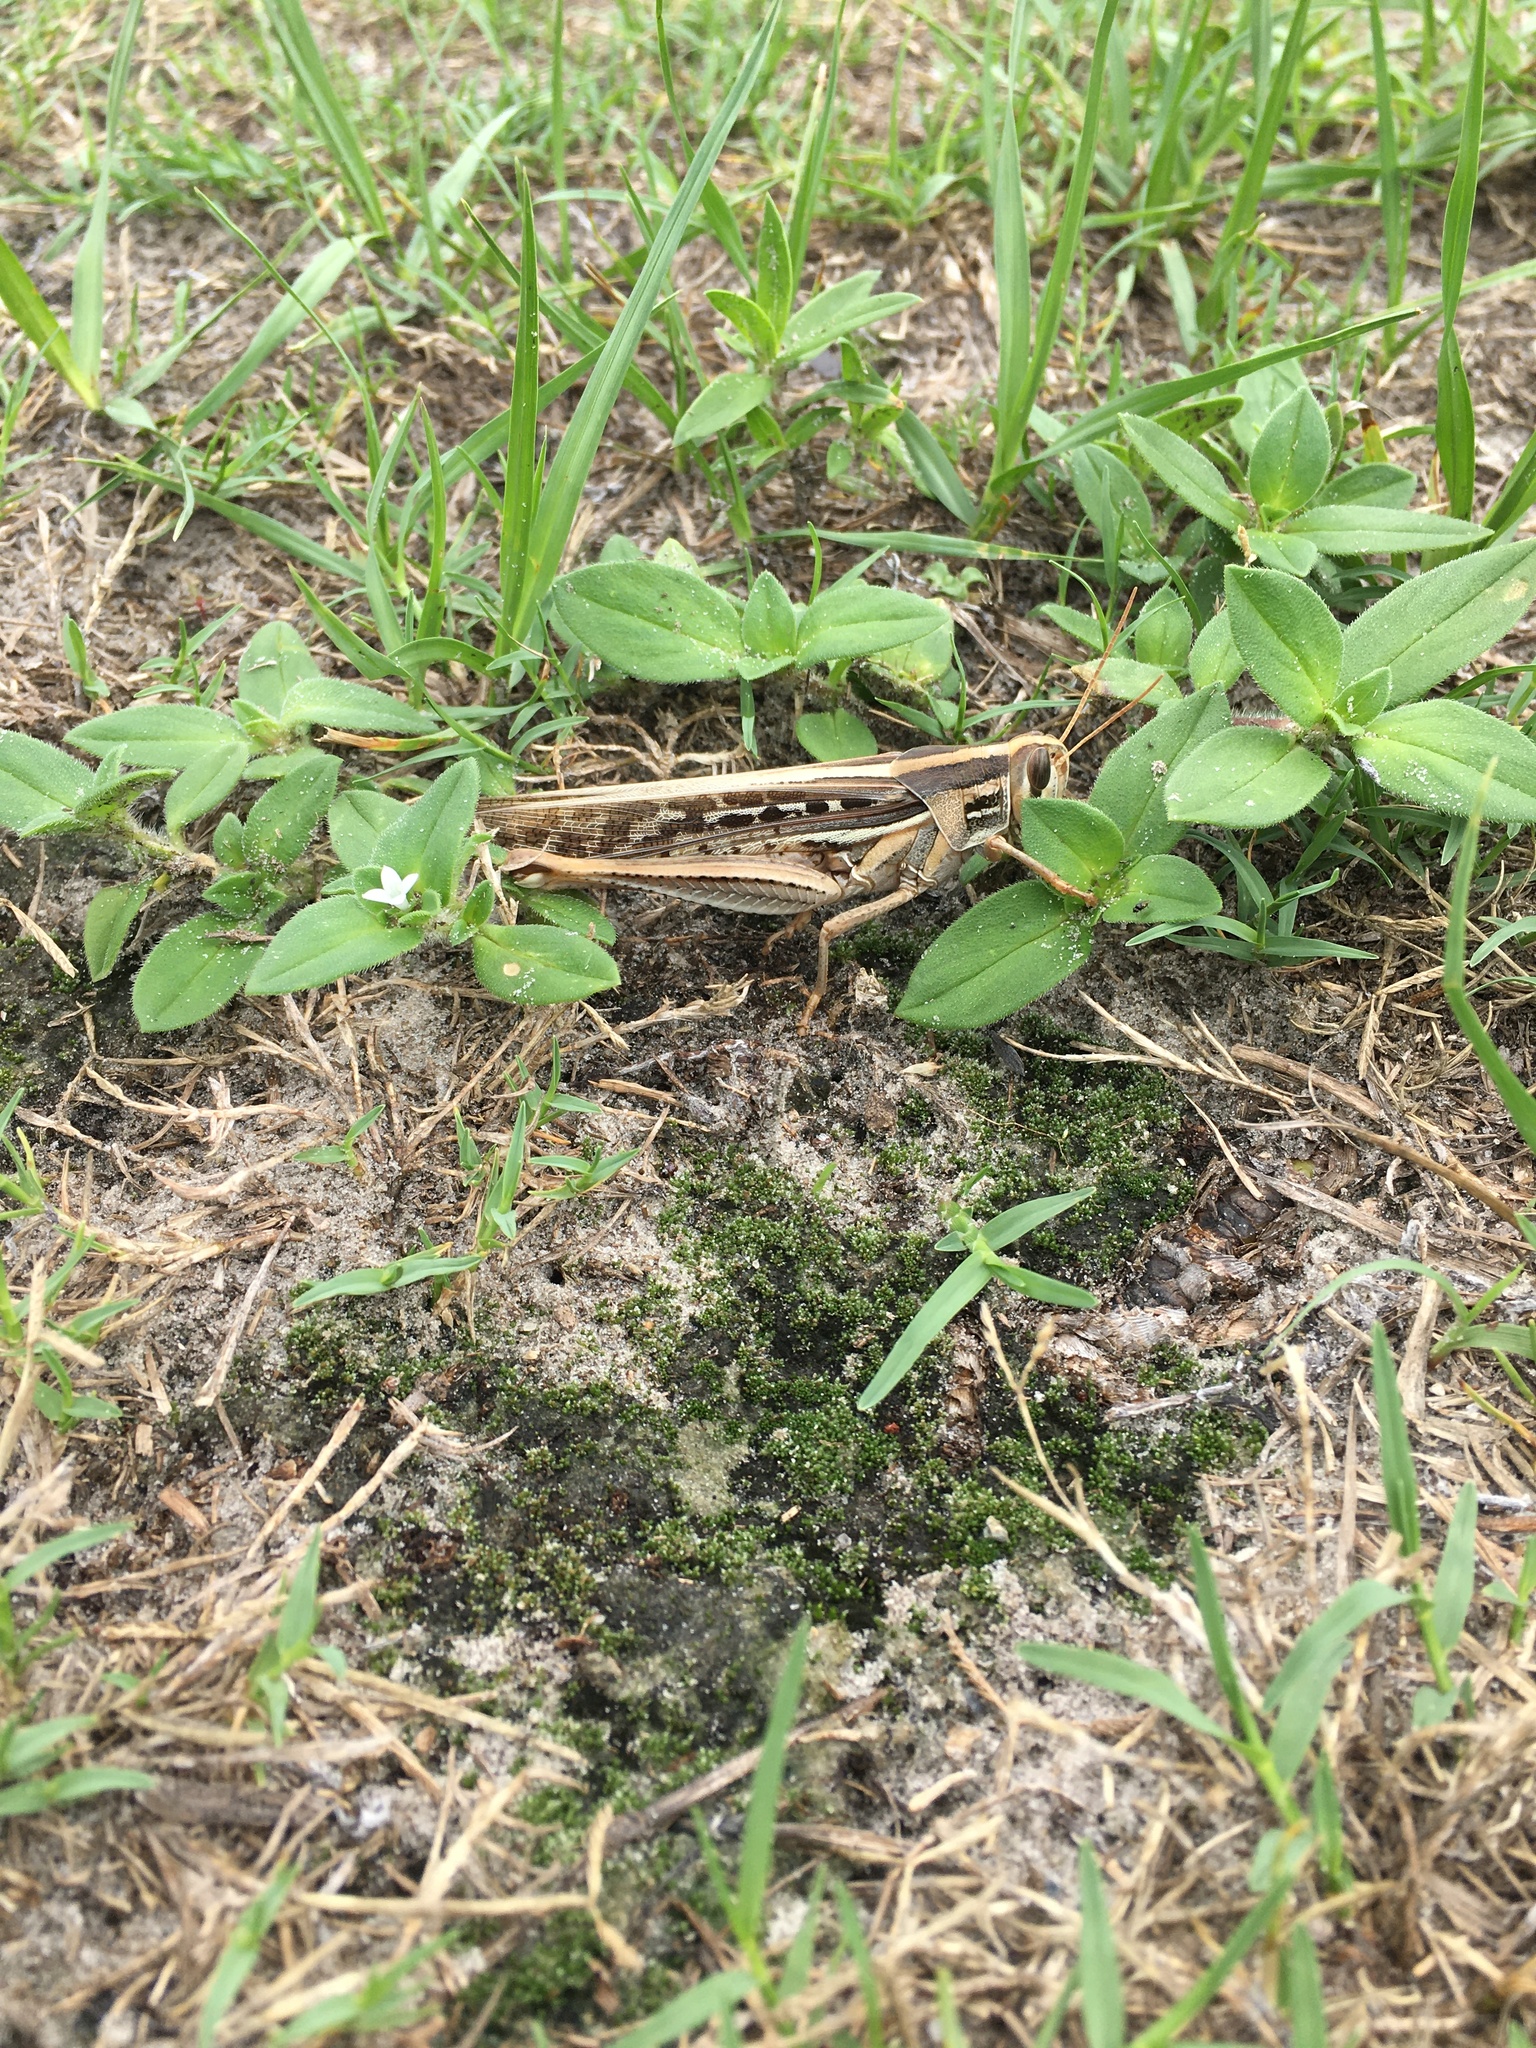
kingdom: Animalia
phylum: Arthropoda
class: Insecta
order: Orthoptera
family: Acrididae
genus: Schistocerca
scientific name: Schistocerca americana
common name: American bird locust
